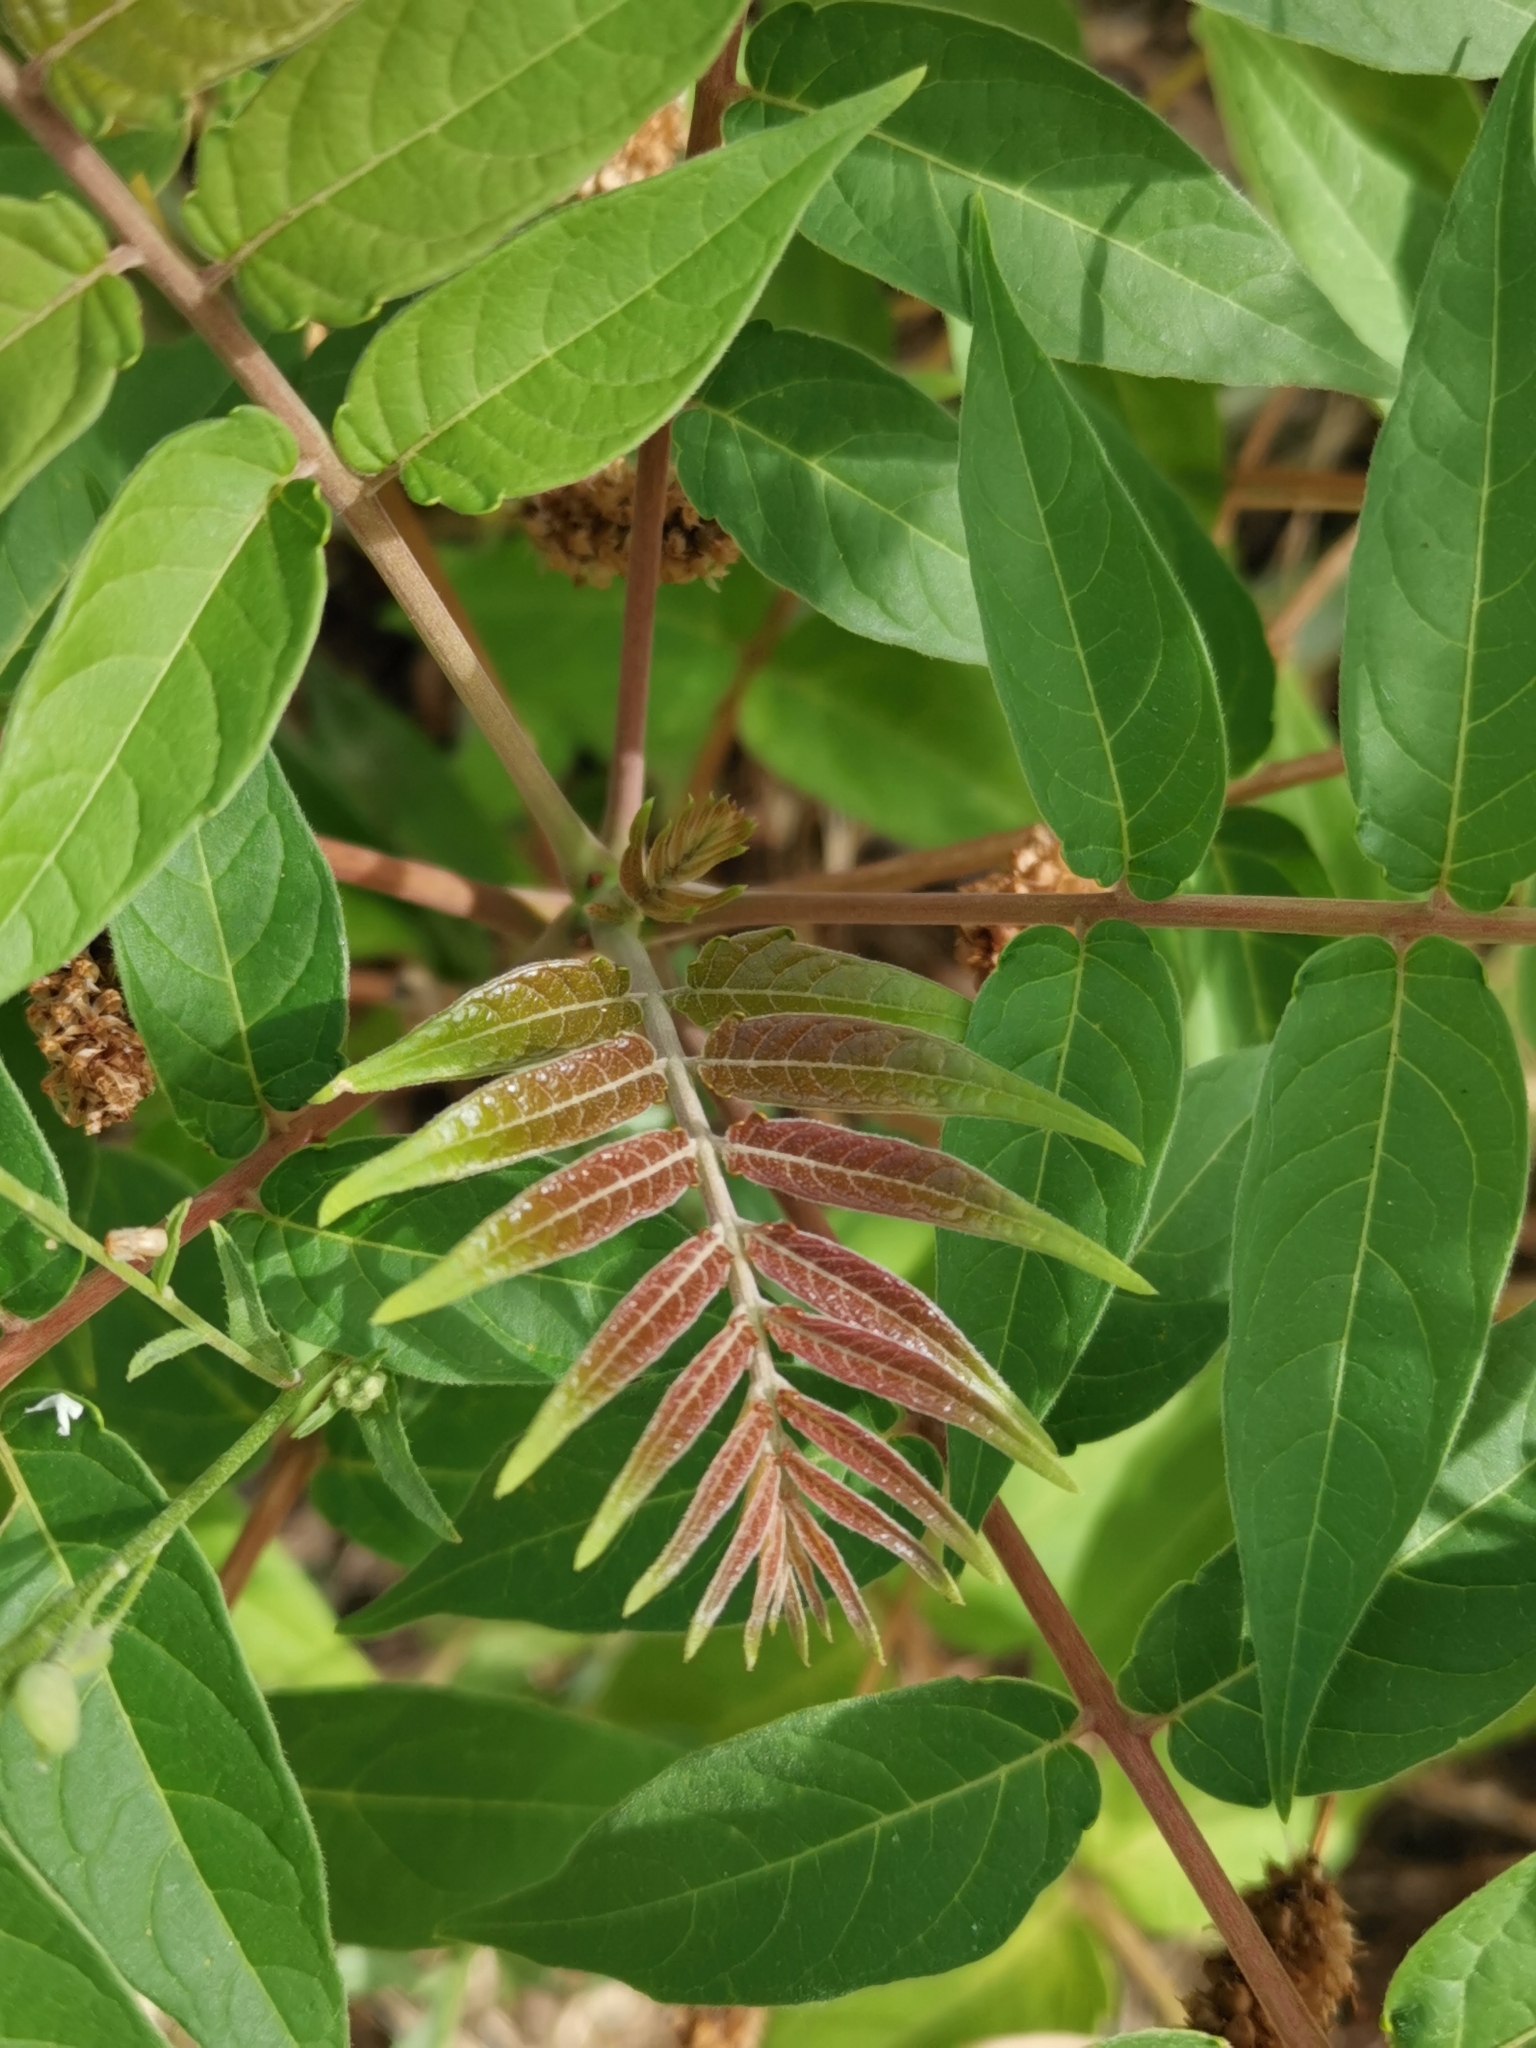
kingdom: Plantae
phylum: Tracheophyta
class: Magnoliopsida
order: Sapindales
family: Simaroubaceae
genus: Ailanthus
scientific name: Ailanthus altissima
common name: Tree-of-heaven
